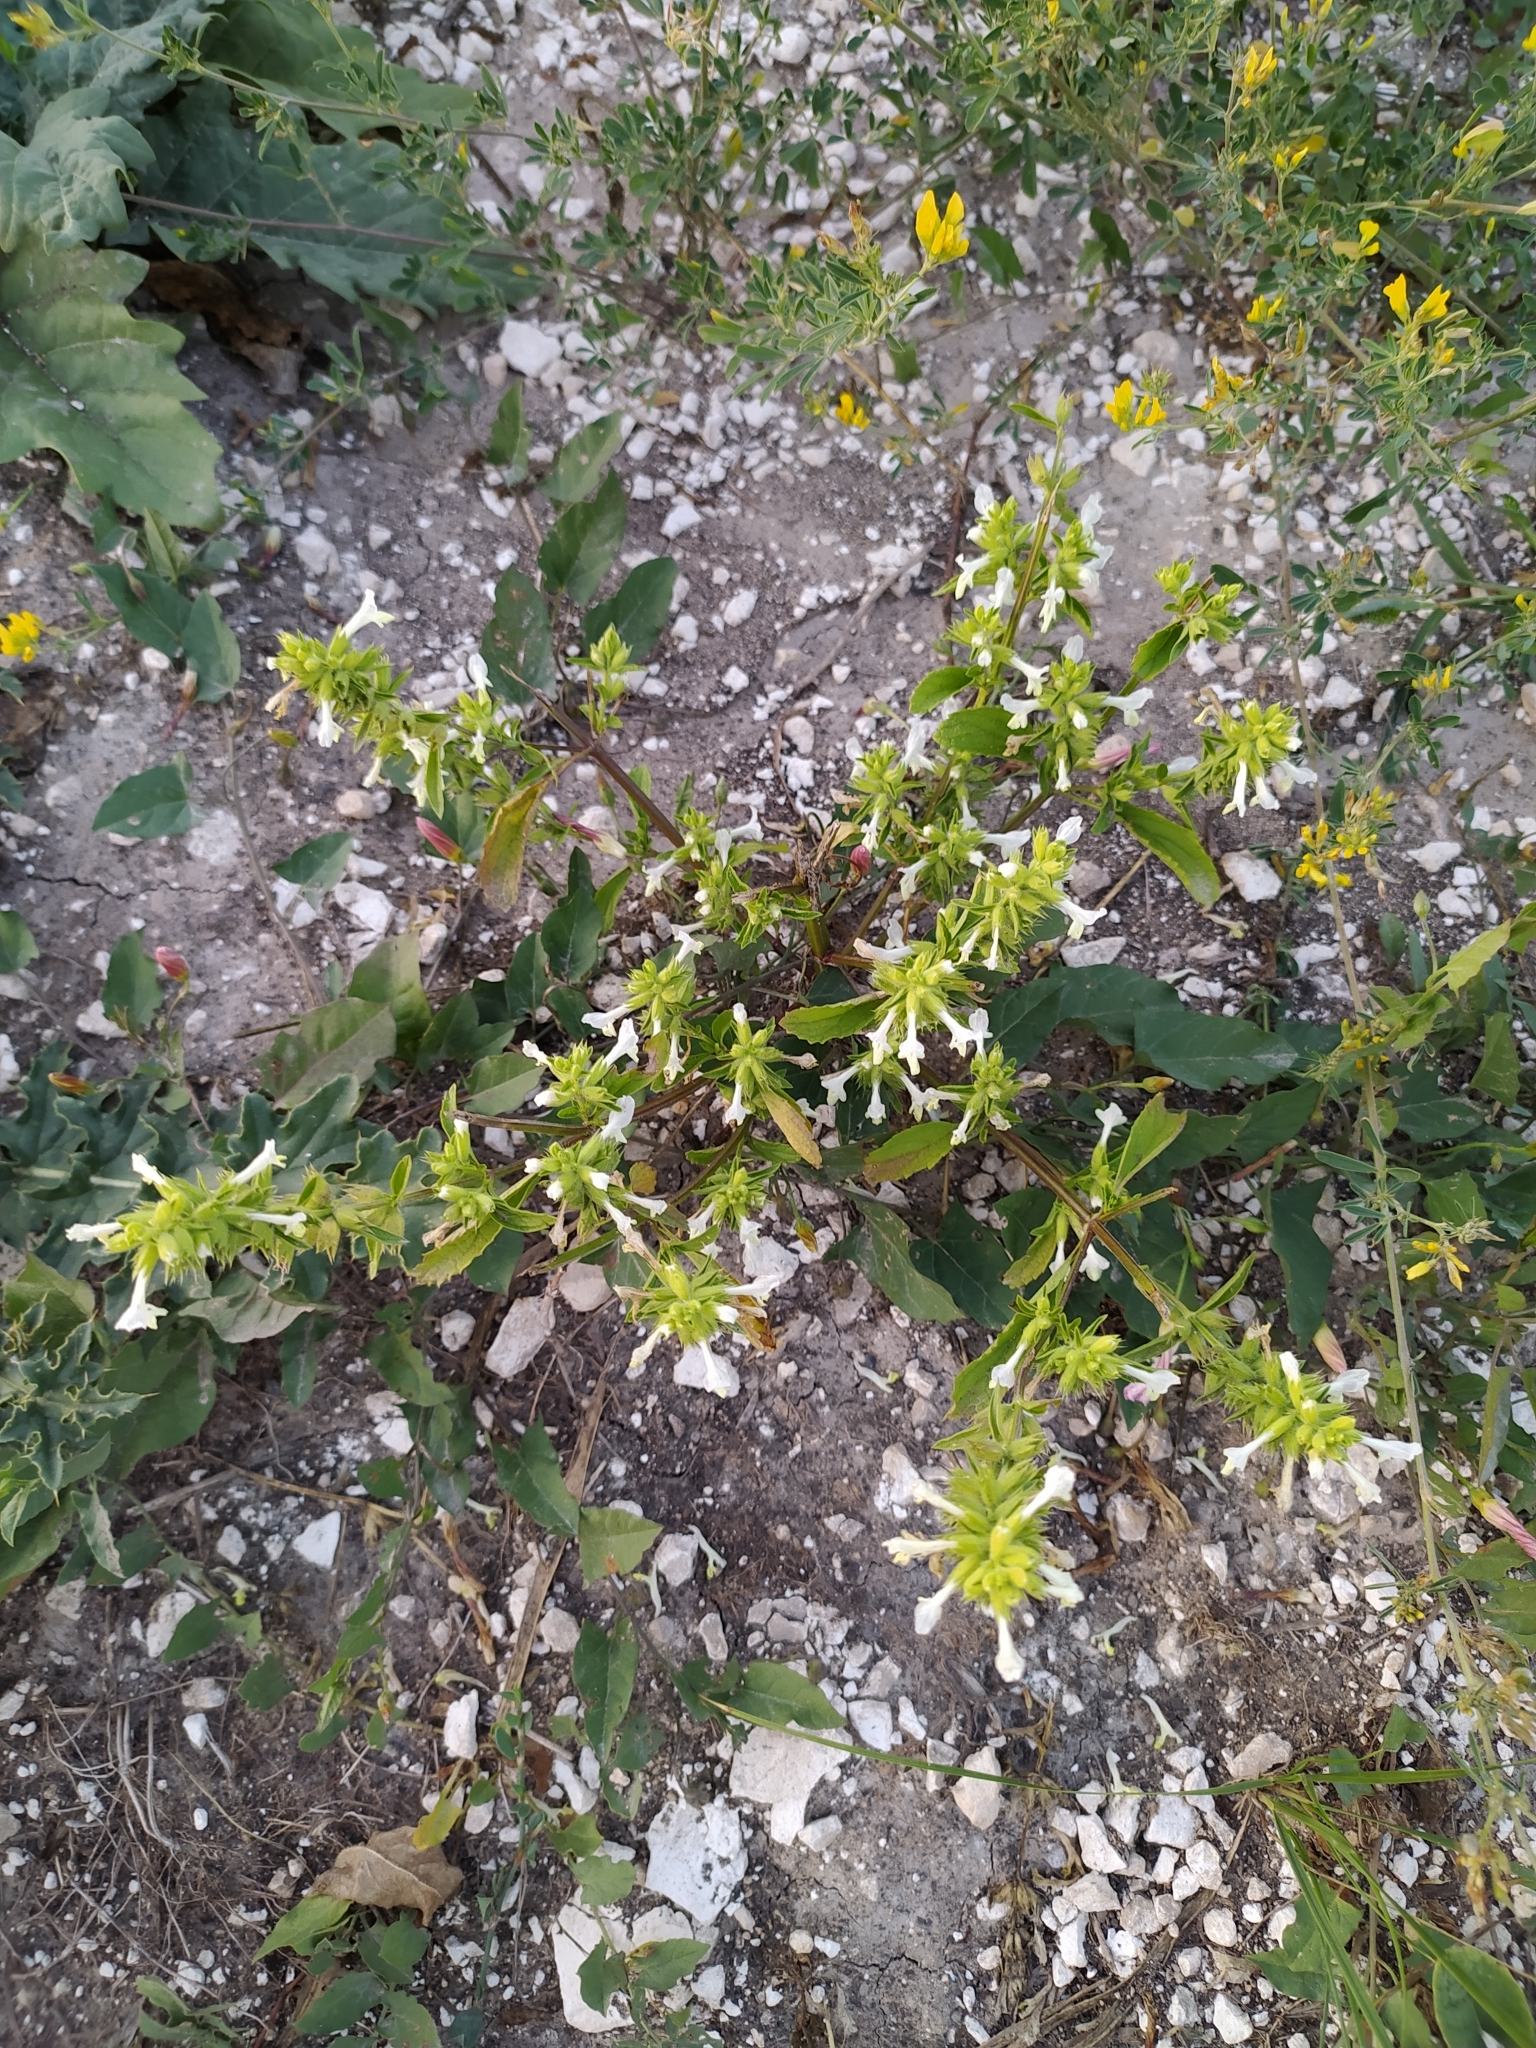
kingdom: Plantae
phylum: Tracheophyta
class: Magnoliopsida
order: Lamiales
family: Lamiaceae
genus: Stachys
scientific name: Stachys annua
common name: Annual yellow-woundwort
